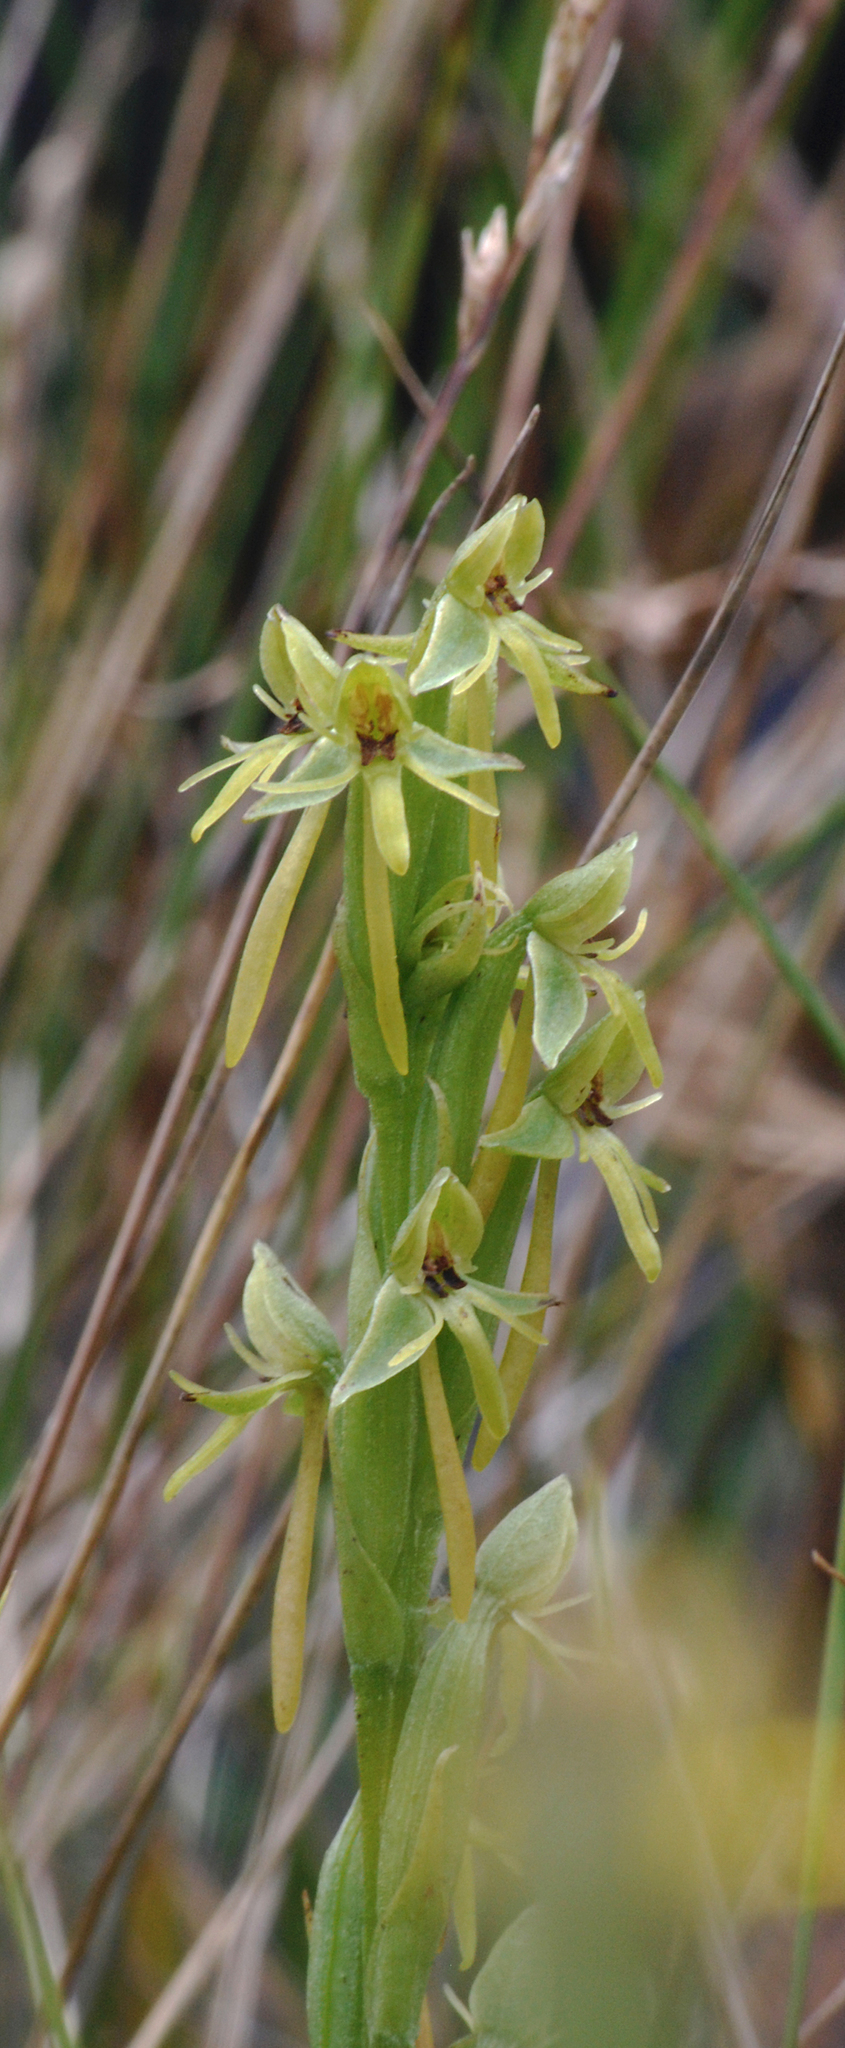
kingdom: Plantae
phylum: Tracheophyta
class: Liliopsida
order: Asparagales
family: Orchidaceae
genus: Habenaria
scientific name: Habenaria gollmeri
